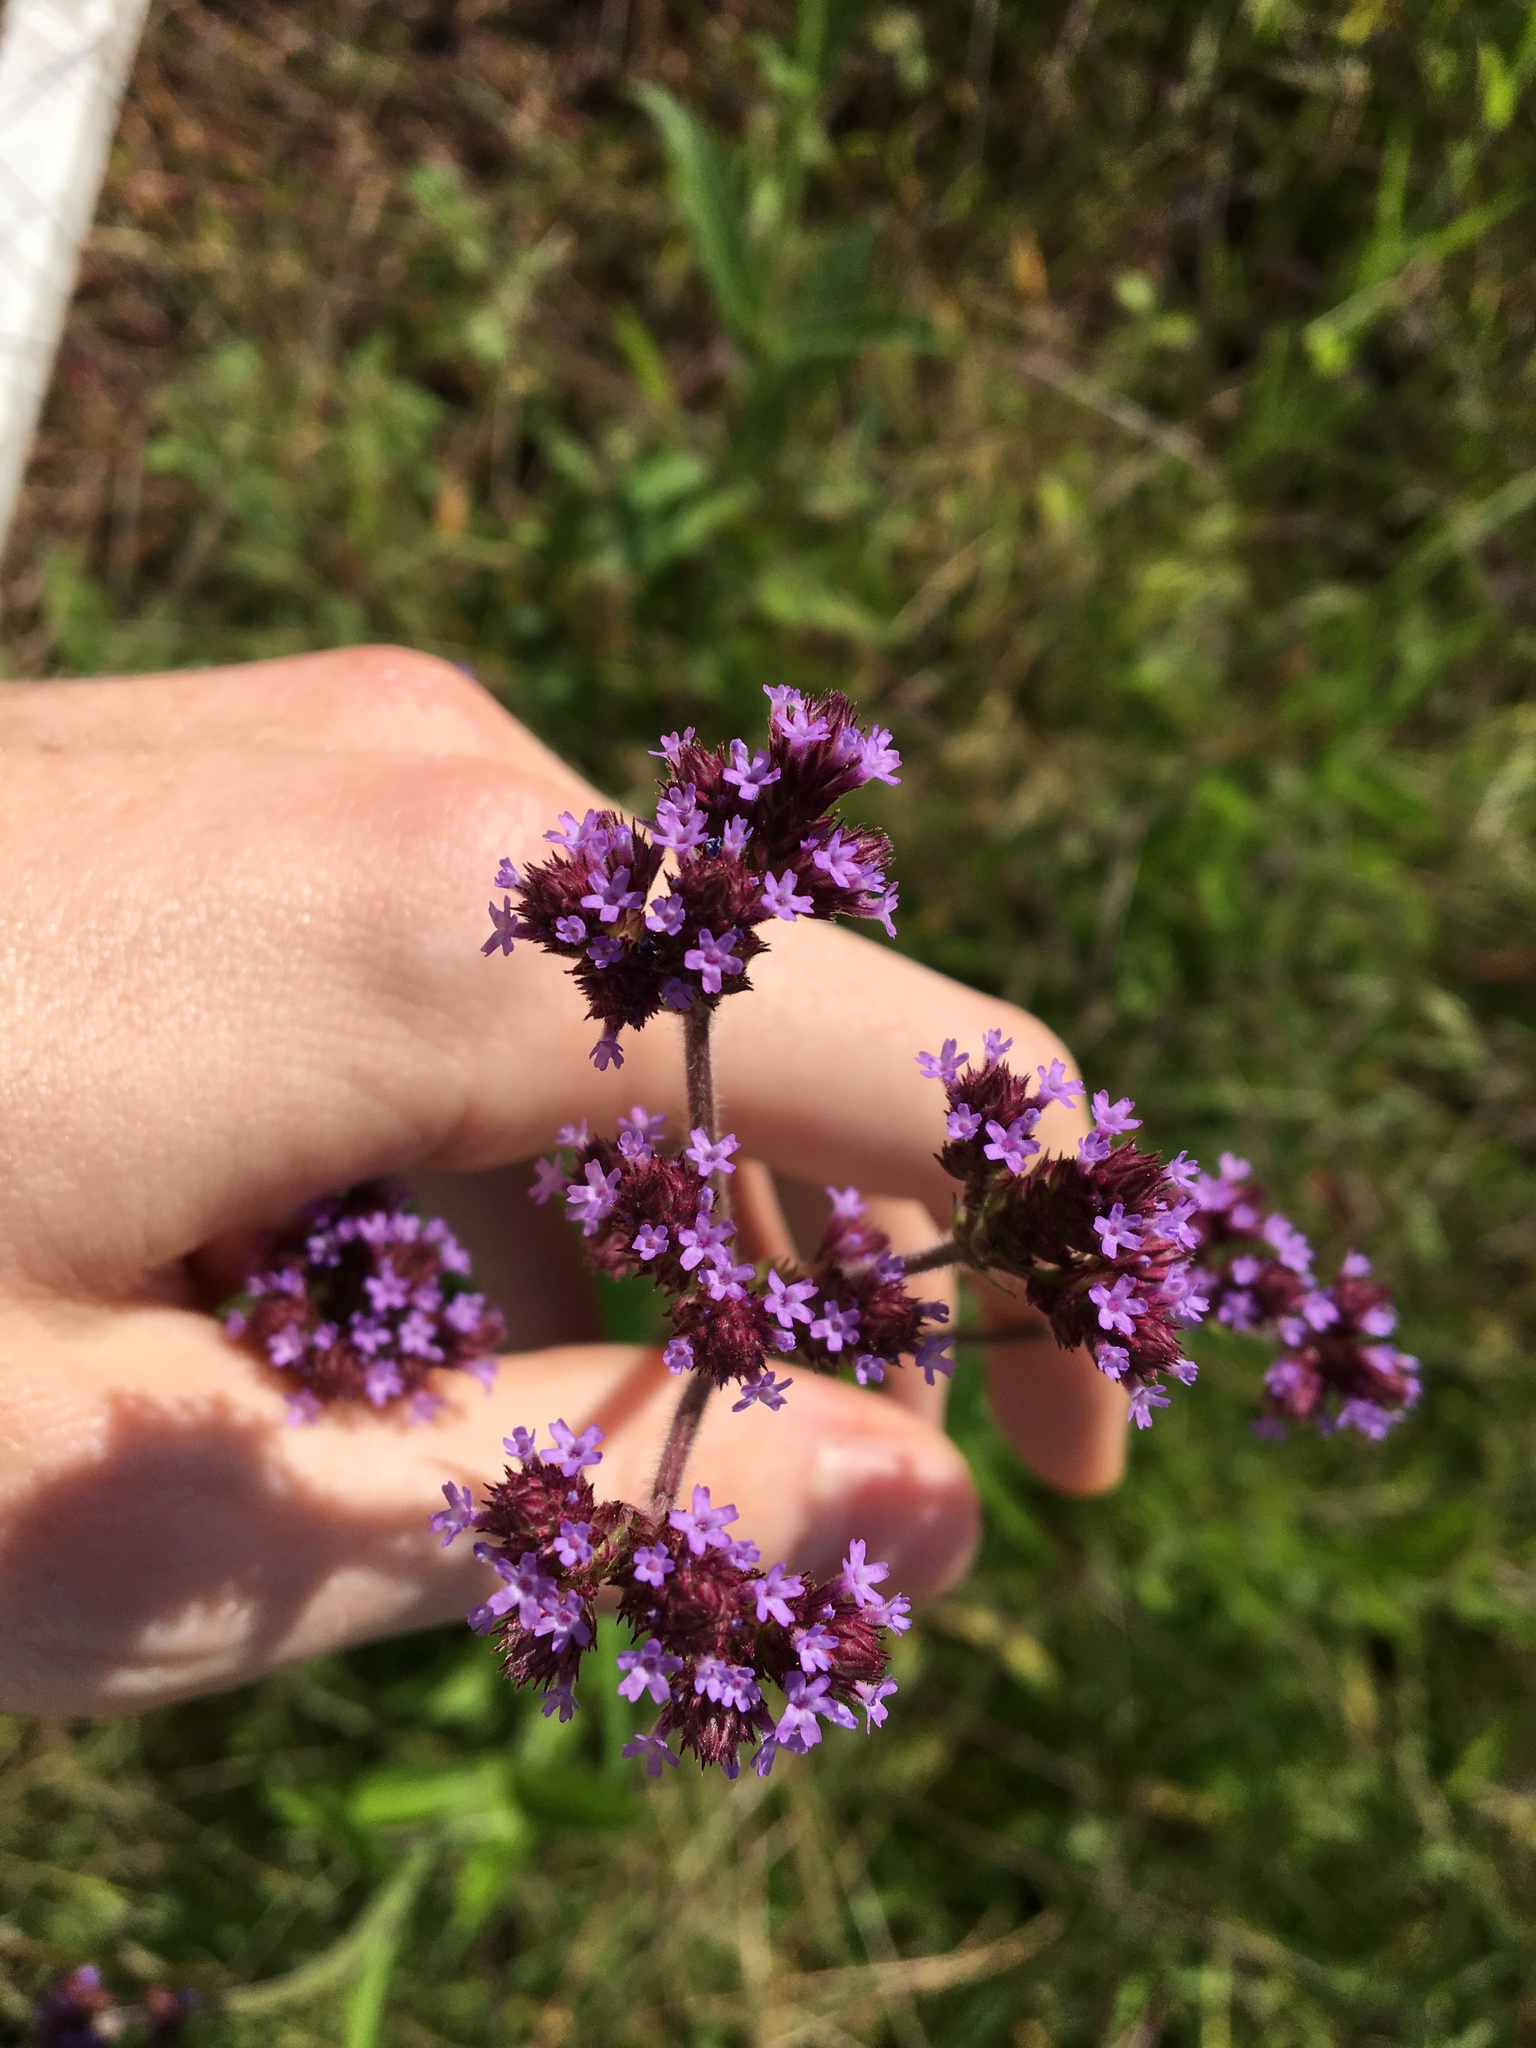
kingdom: Plantae
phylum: Tracheophyta
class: Magnoliopsida
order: Lamiales
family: Verbenaceae
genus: Verbena
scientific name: Verbena bonariensis
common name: Purpletop vervain
